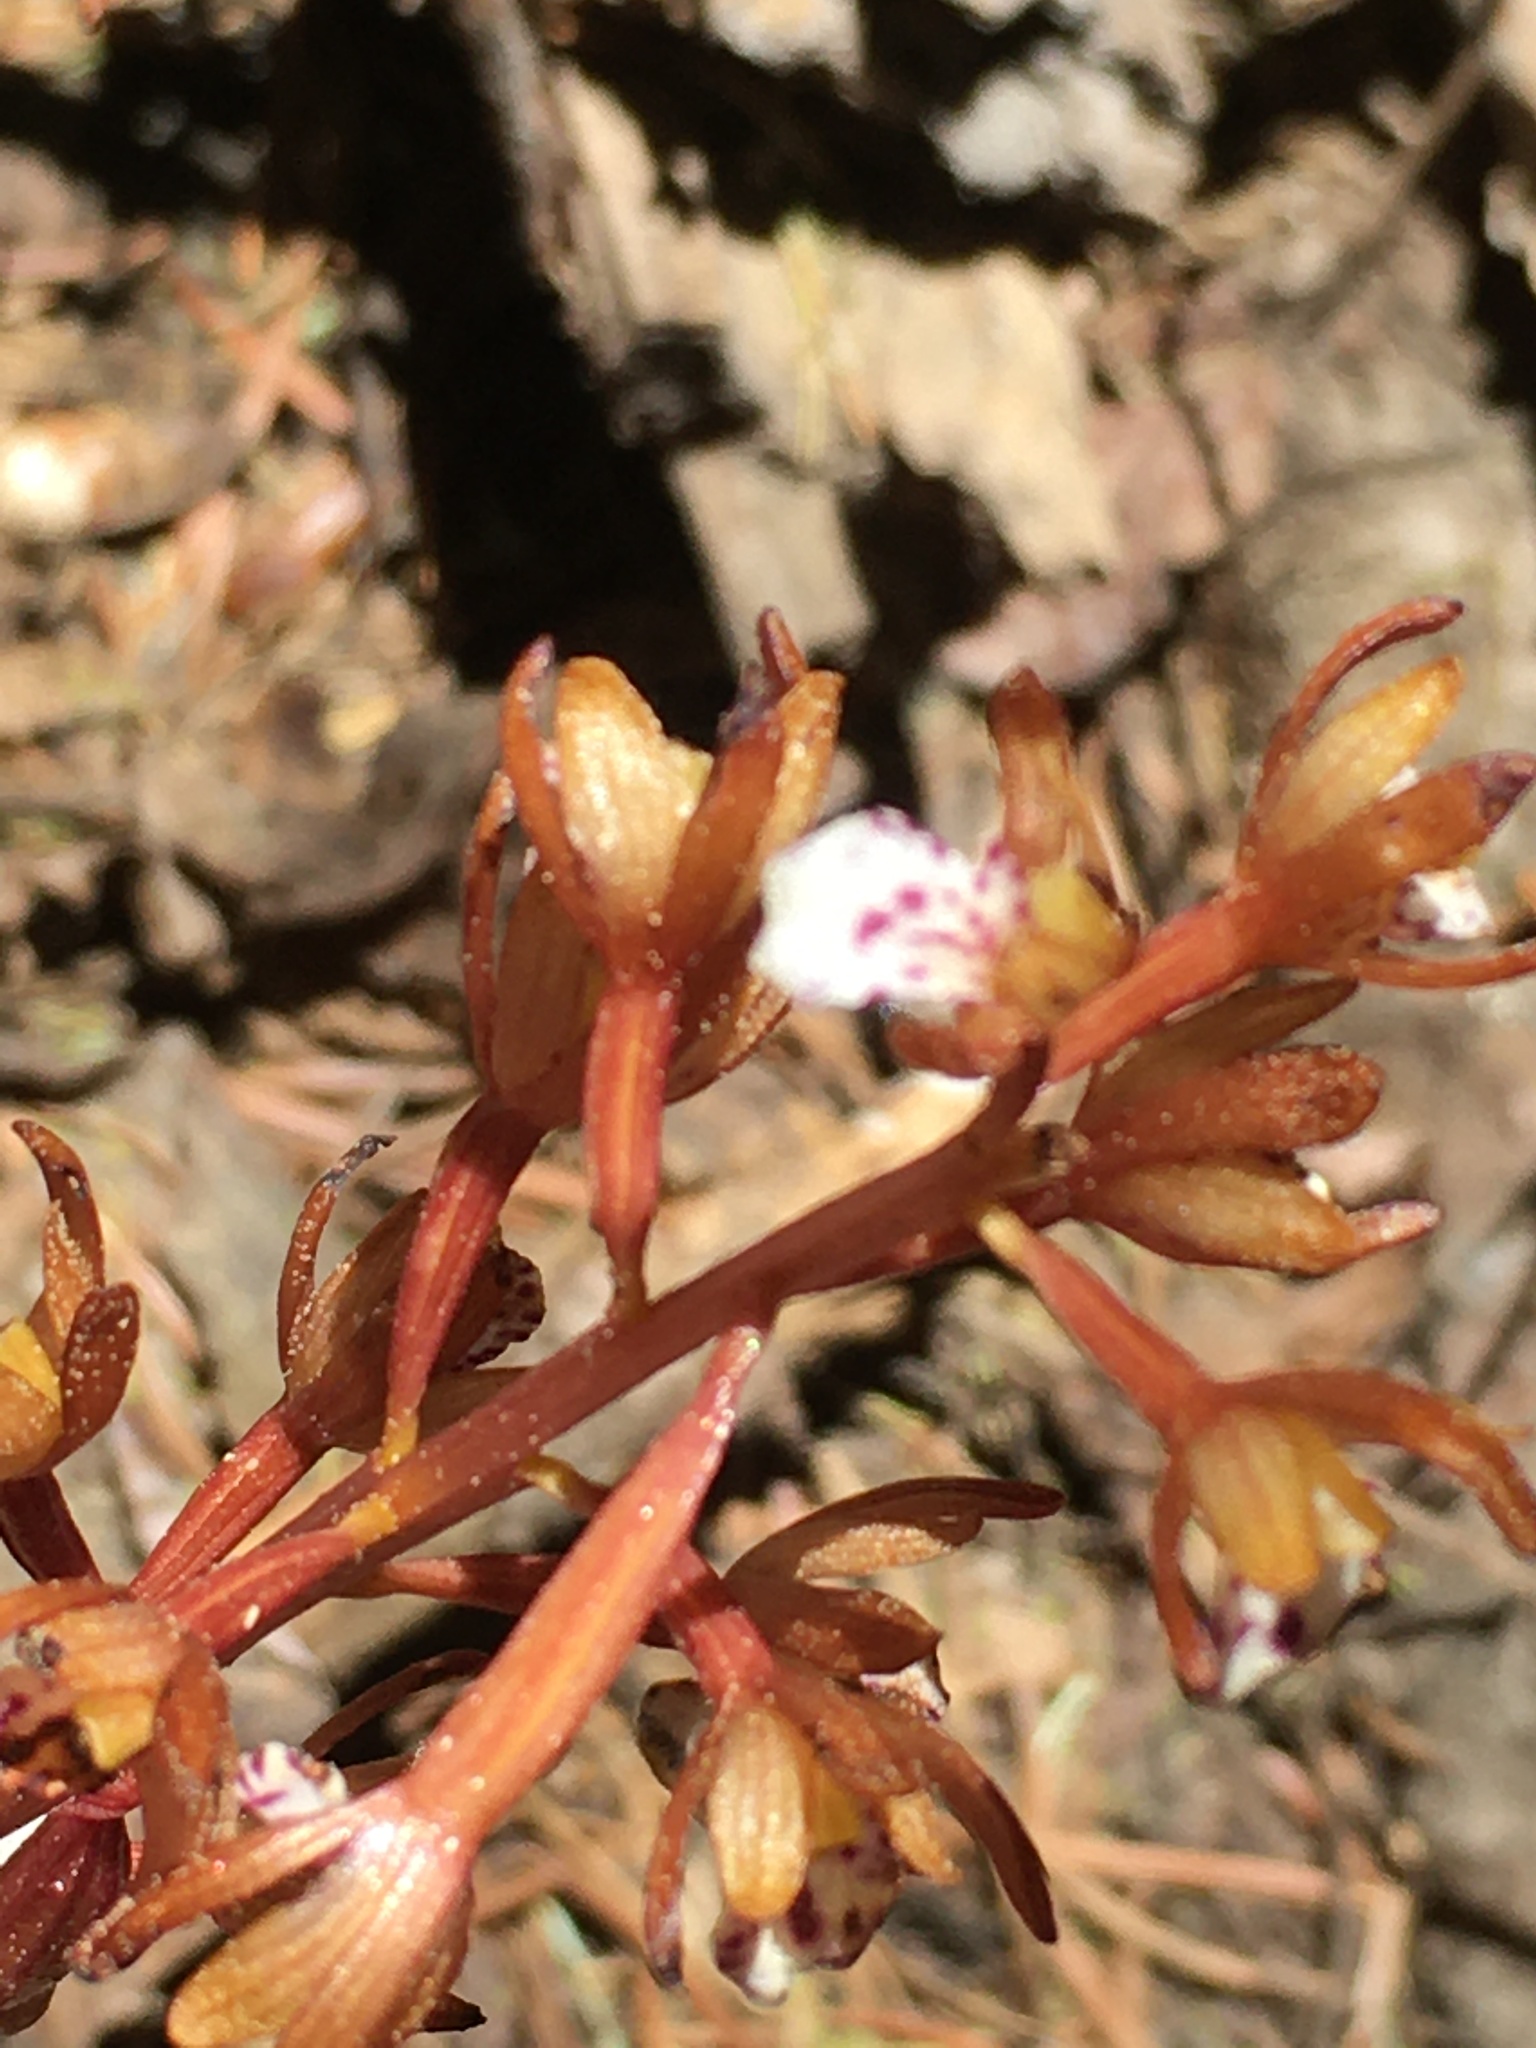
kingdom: Plantae
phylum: Tracheophyta
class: Liliopsida
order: Asparagales
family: Orchidaceae
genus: Corallorhiza
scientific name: Corallorhiza maculata
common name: Spotted coralroot
